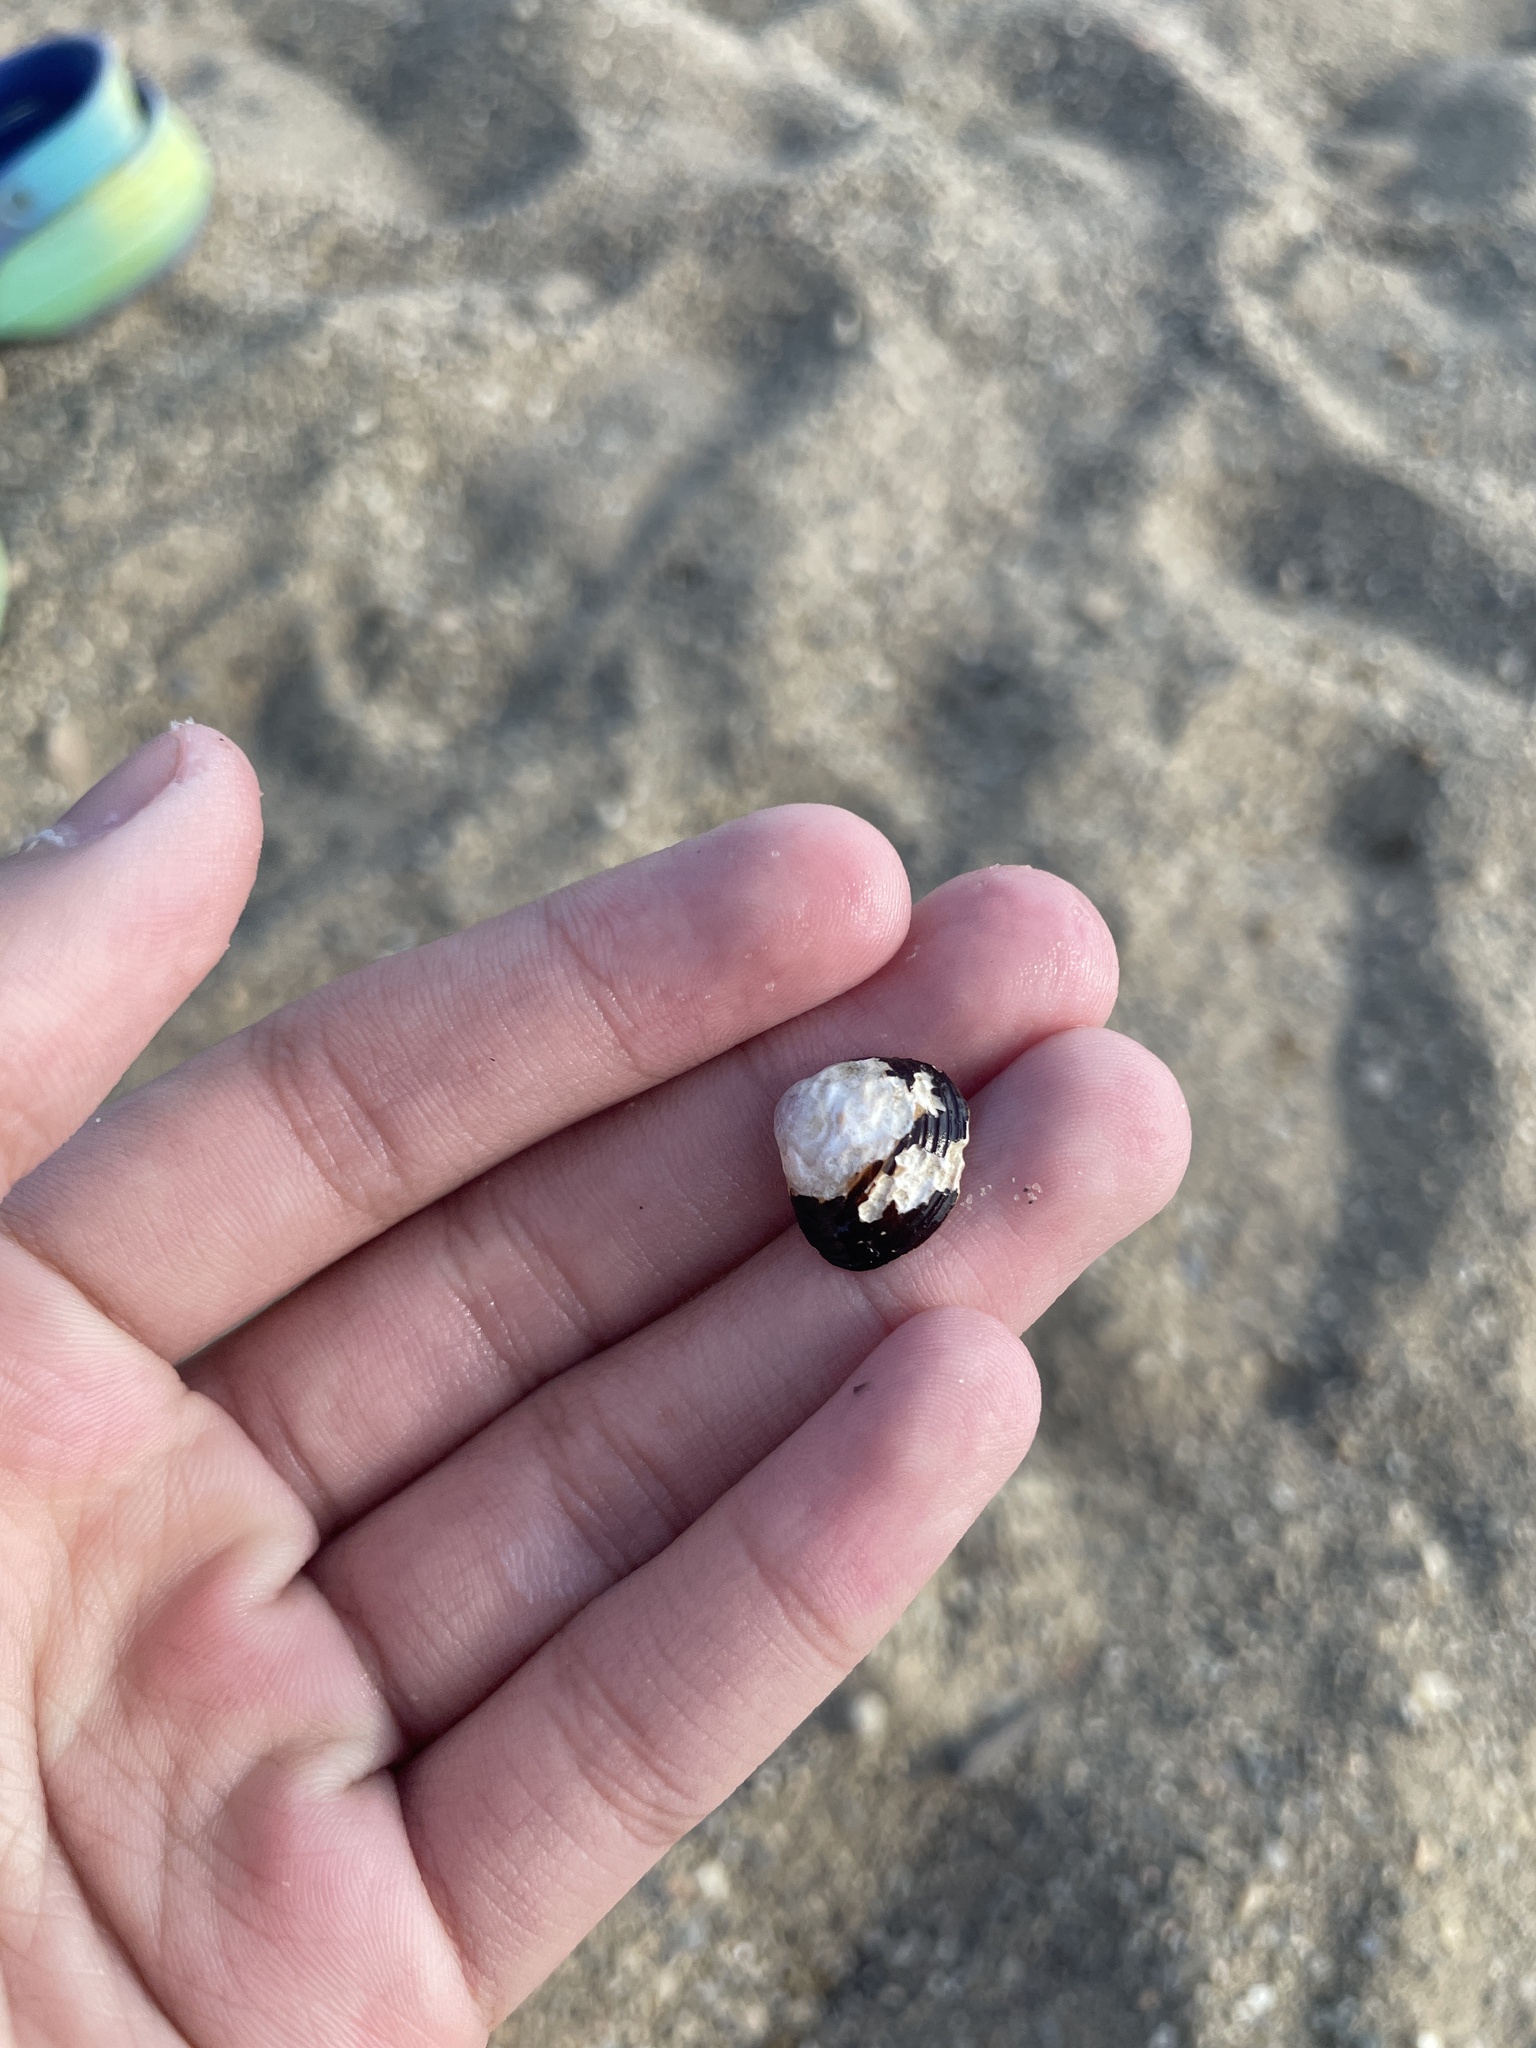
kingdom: Animalia
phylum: Mollusca
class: Bivalvia
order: Venerida
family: Cyrenidae
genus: Corbicula
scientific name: Corbicula fluminea
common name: Asian clam
